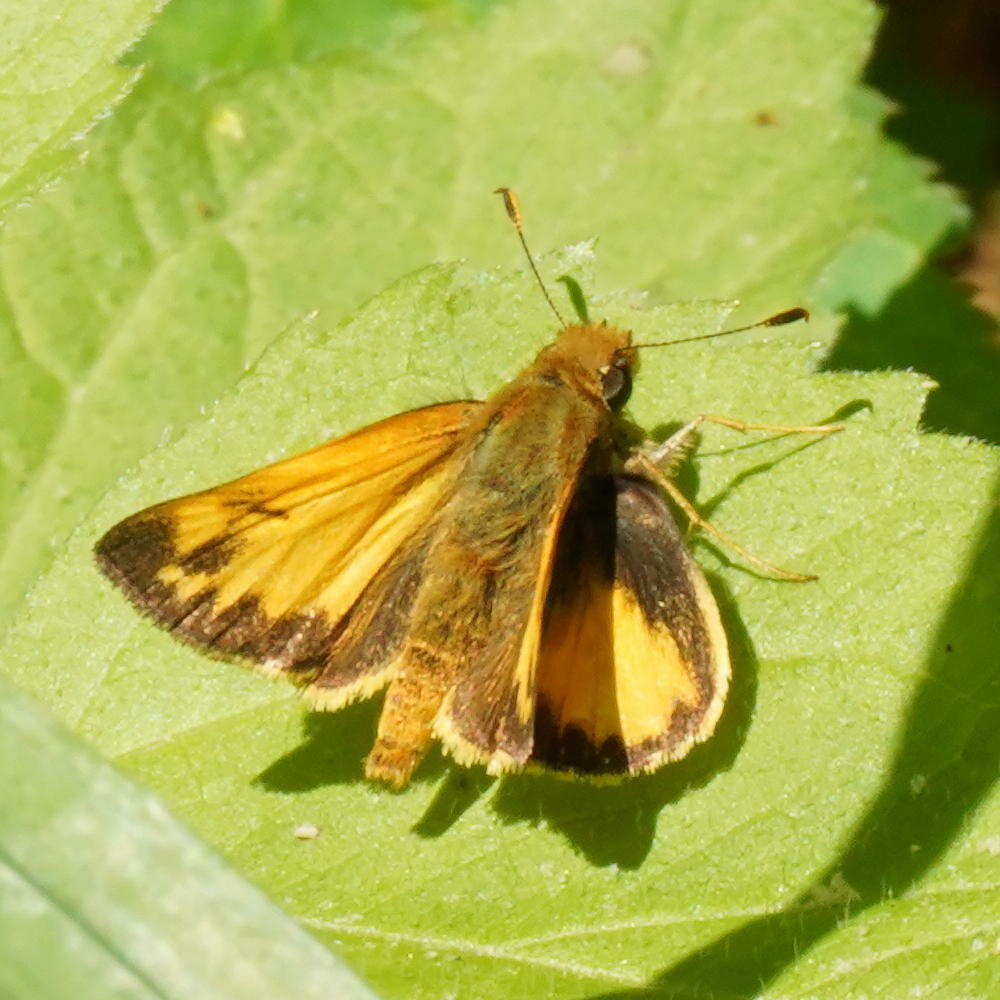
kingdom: Animalia
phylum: Arthropoda
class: Insecta
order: Lepidoptera
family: Hesperiidae
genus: Lon
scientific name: Lon zabulon
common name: Zabulon skipper
